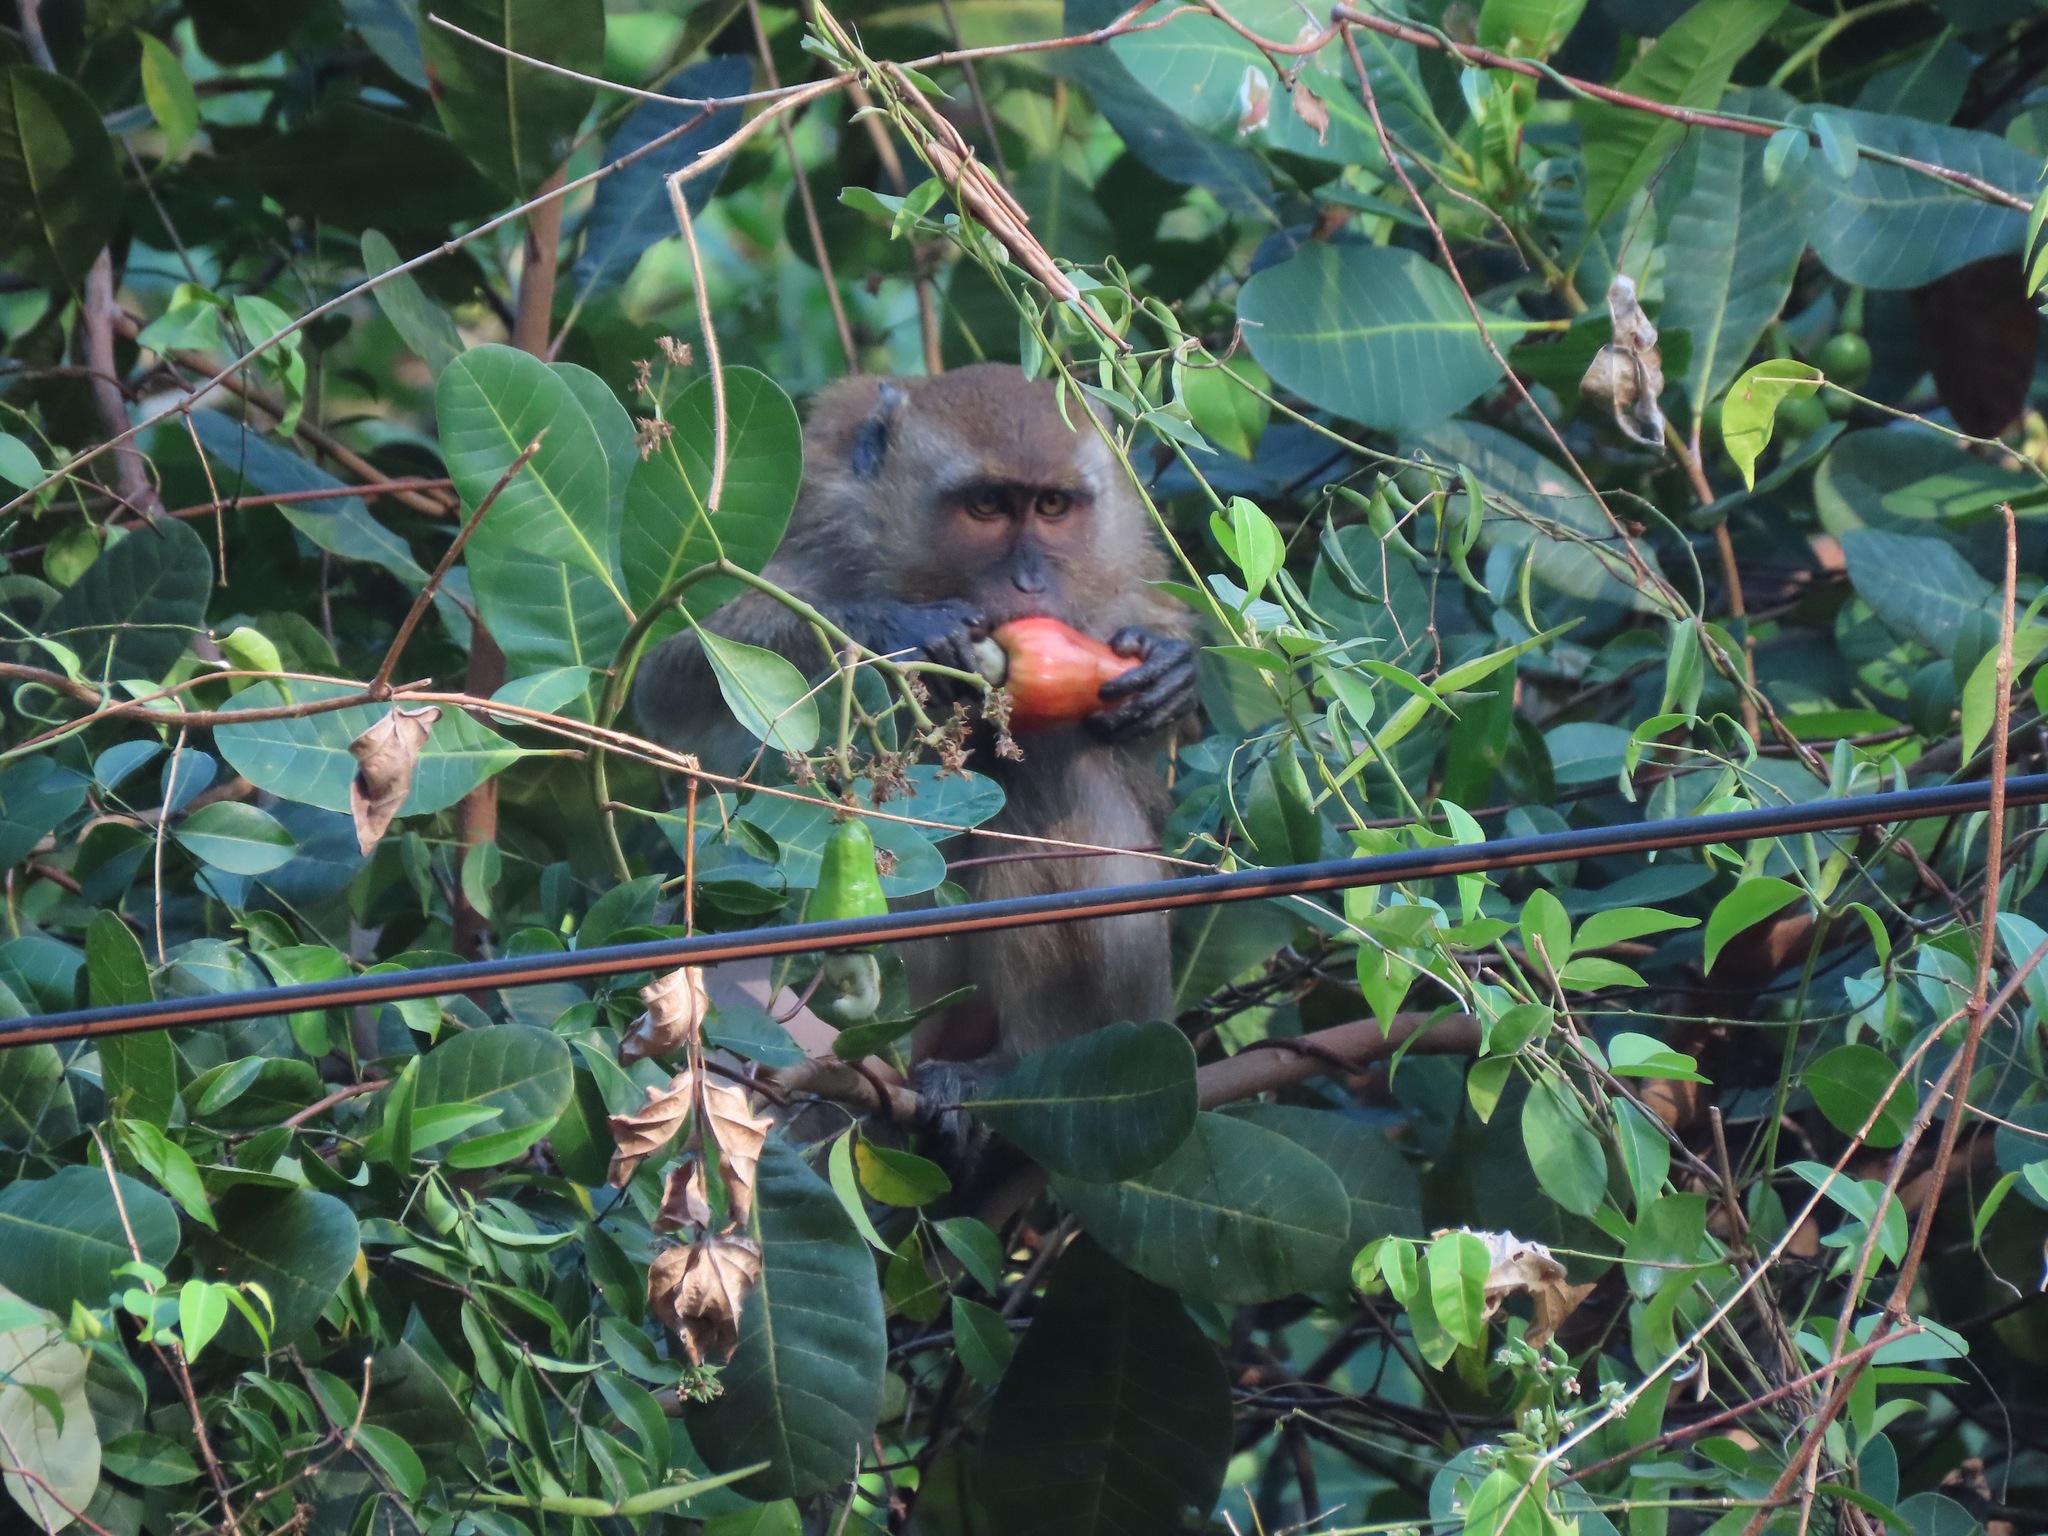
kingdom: Animalia
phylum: Chordata
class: Mammalia
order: Primates
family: Cercopithecidae
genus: Macaca
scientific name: Macaca fascicularis
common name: Crab-eating macaque
